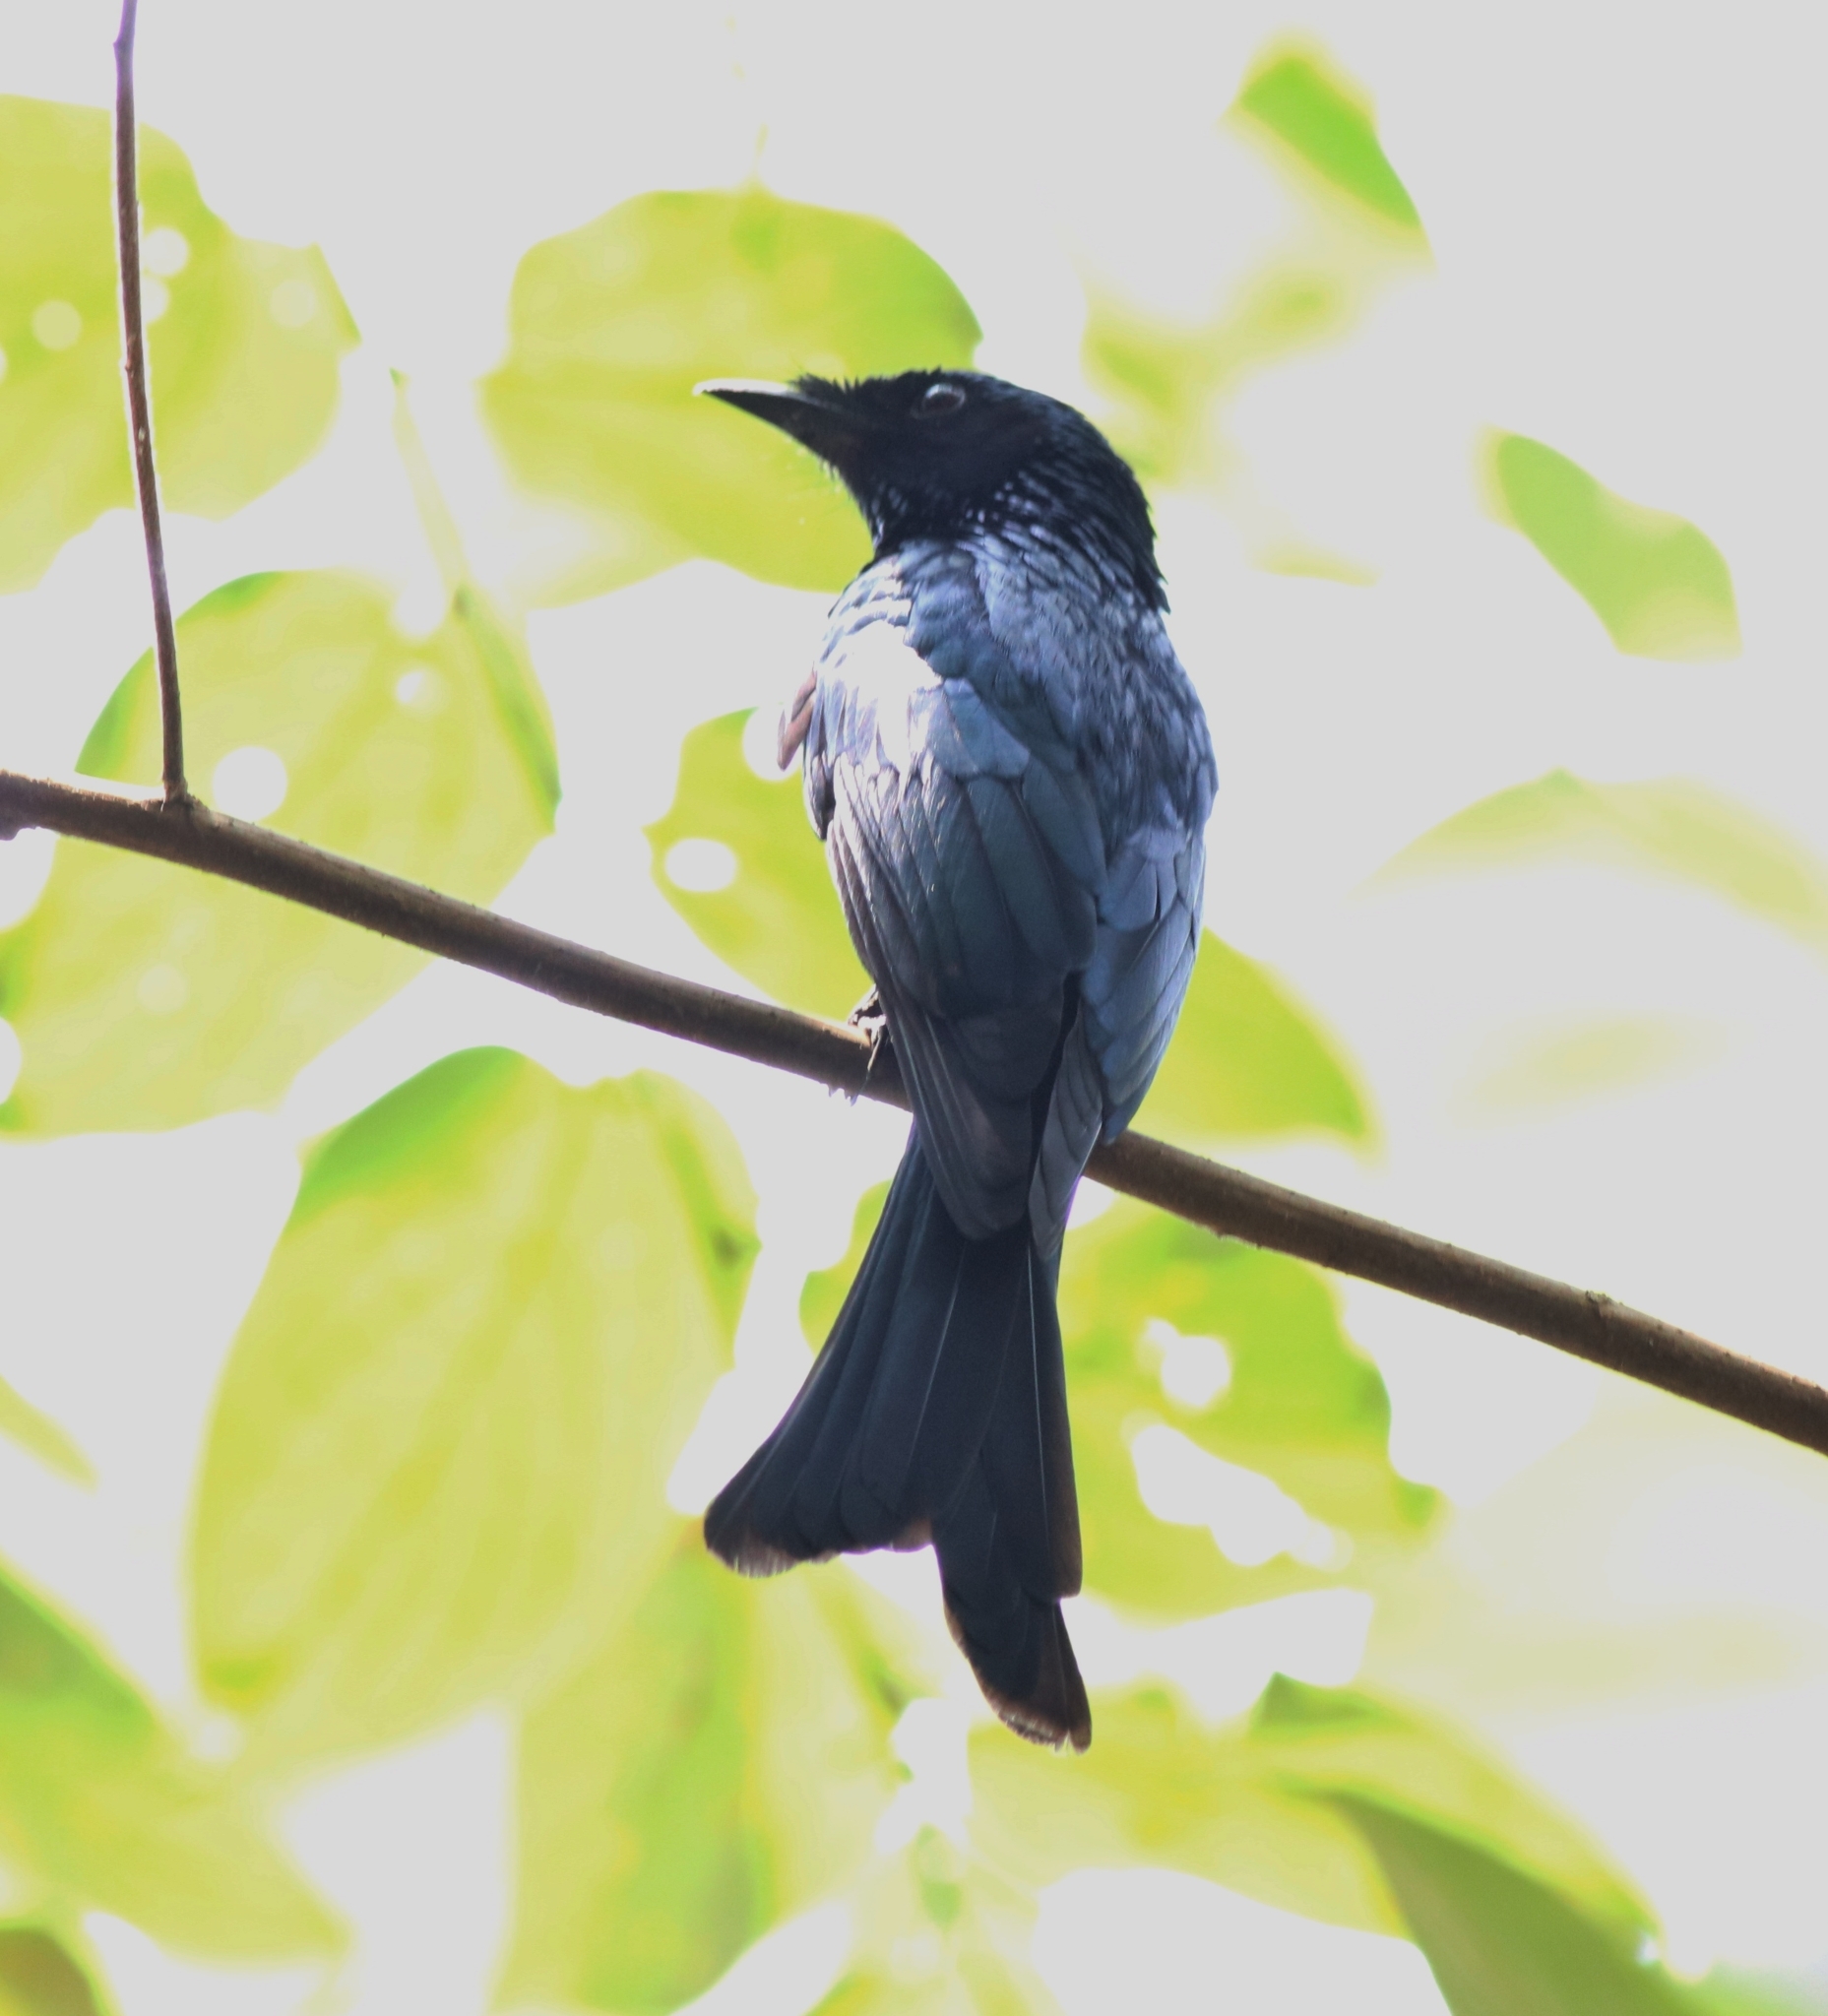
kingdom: Animalia
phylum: Chordata
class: Aves
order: Passeriformes
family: Dicruridae
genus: Dicrurus
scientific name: Dicrurus aeneus
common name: Bronzed drongo
